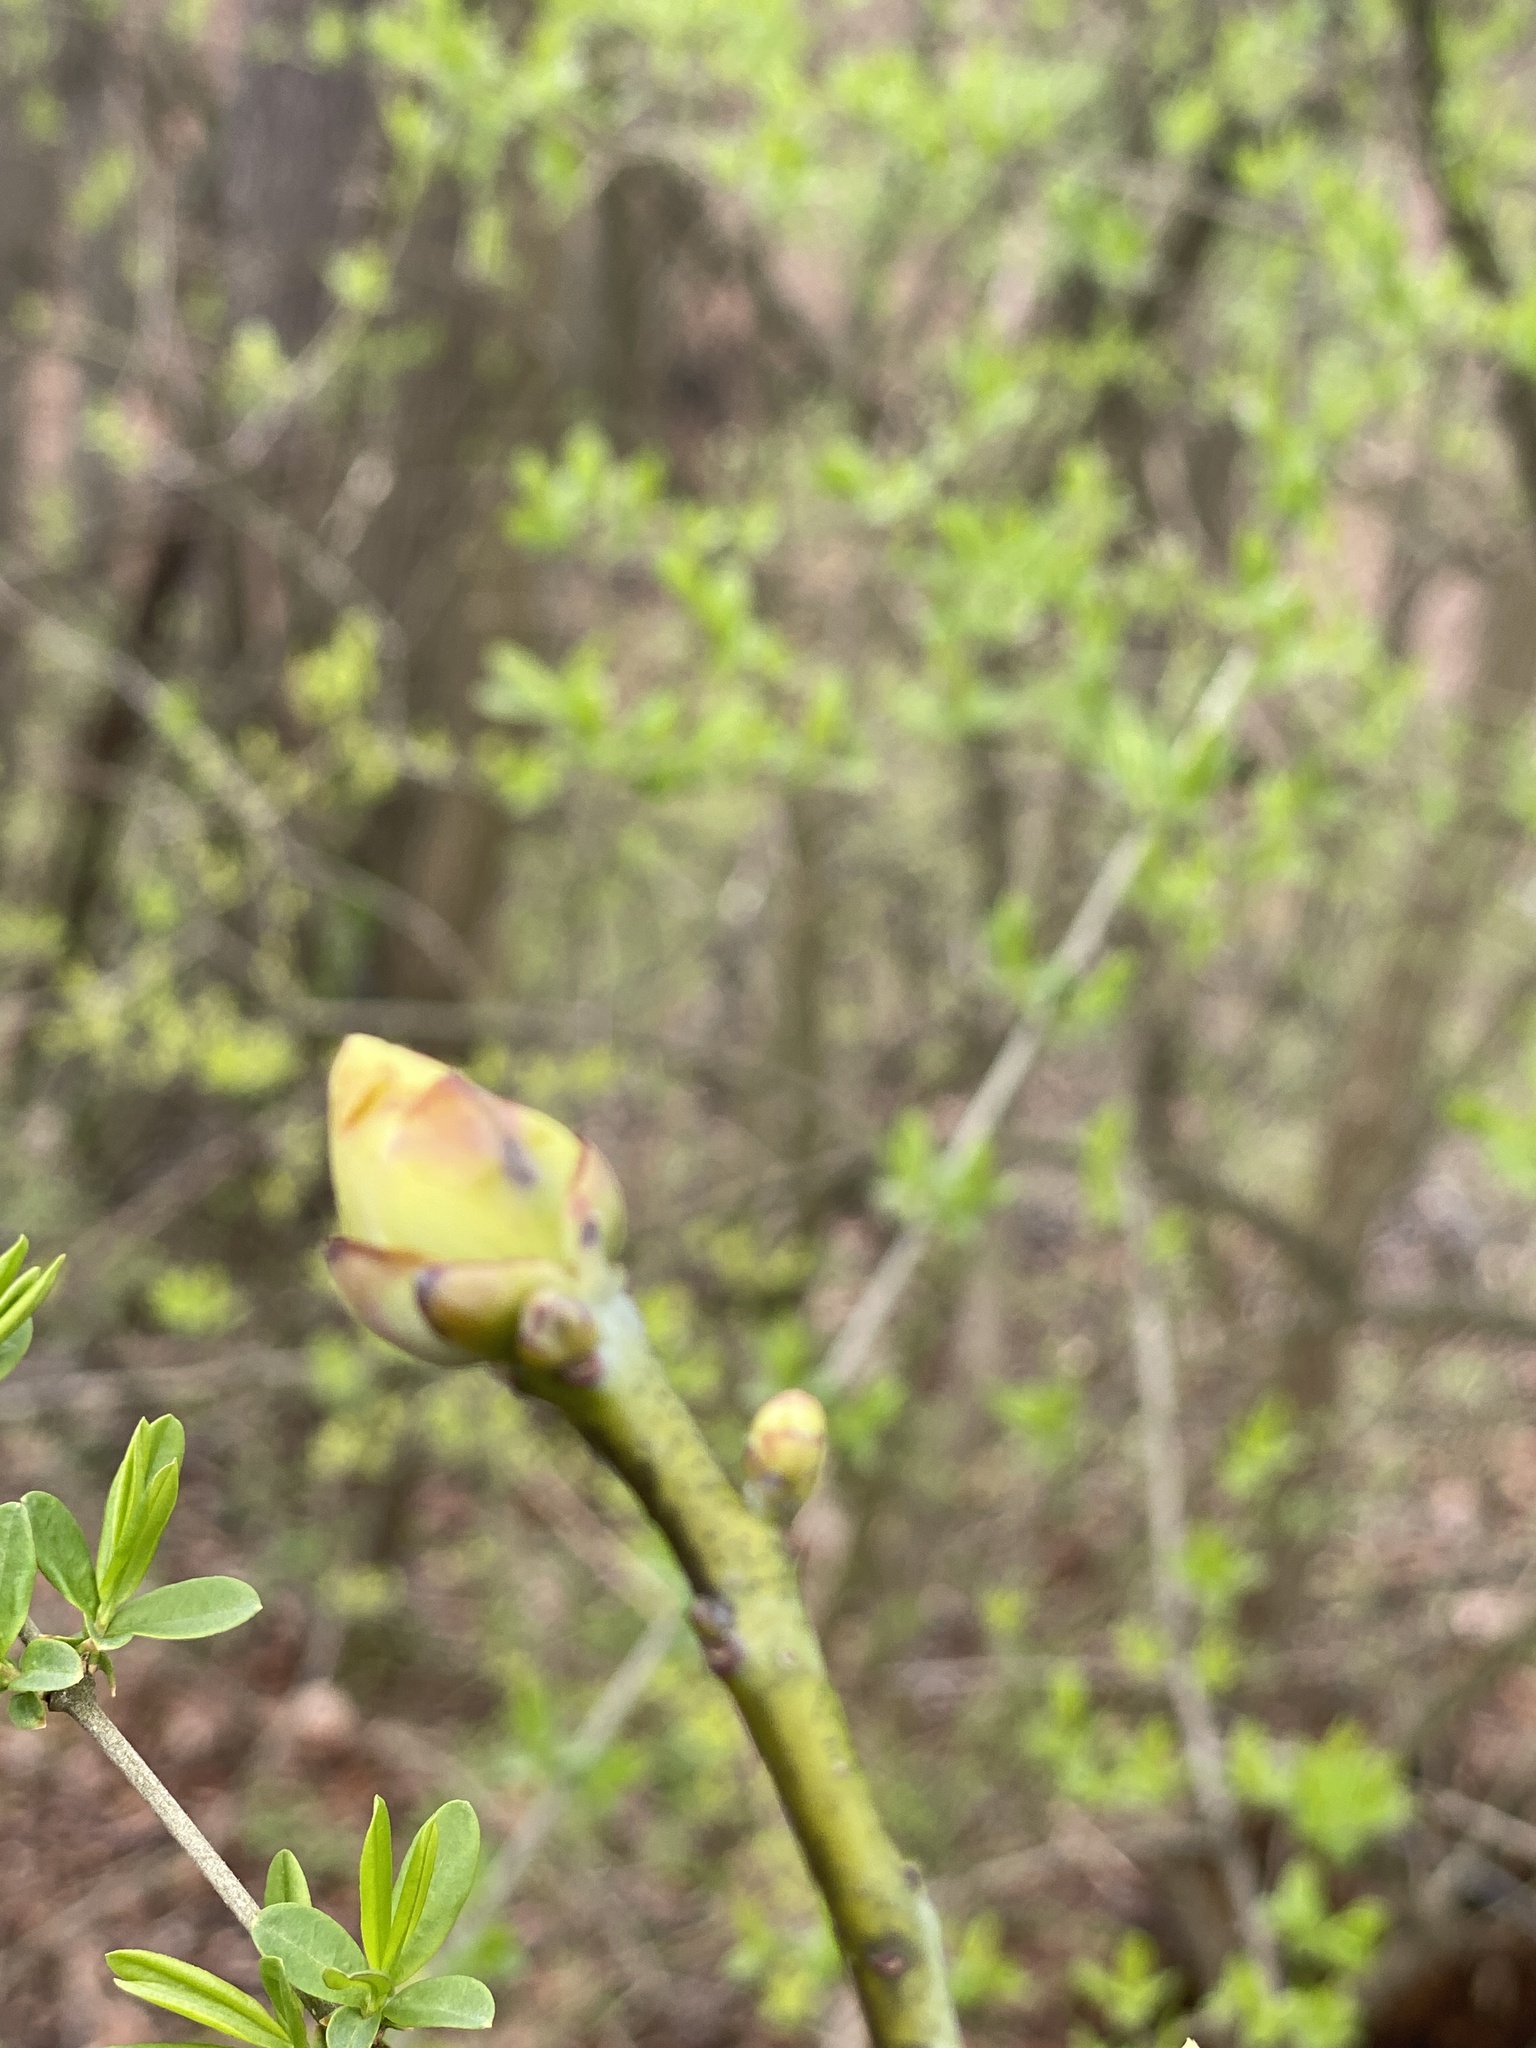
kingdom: Plantae
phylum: Tracheophyta
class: Magnoliopsida
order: Laurales
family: Lauraceae
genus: Sassafras
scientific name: Sassafras albidum
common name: Sassafras
